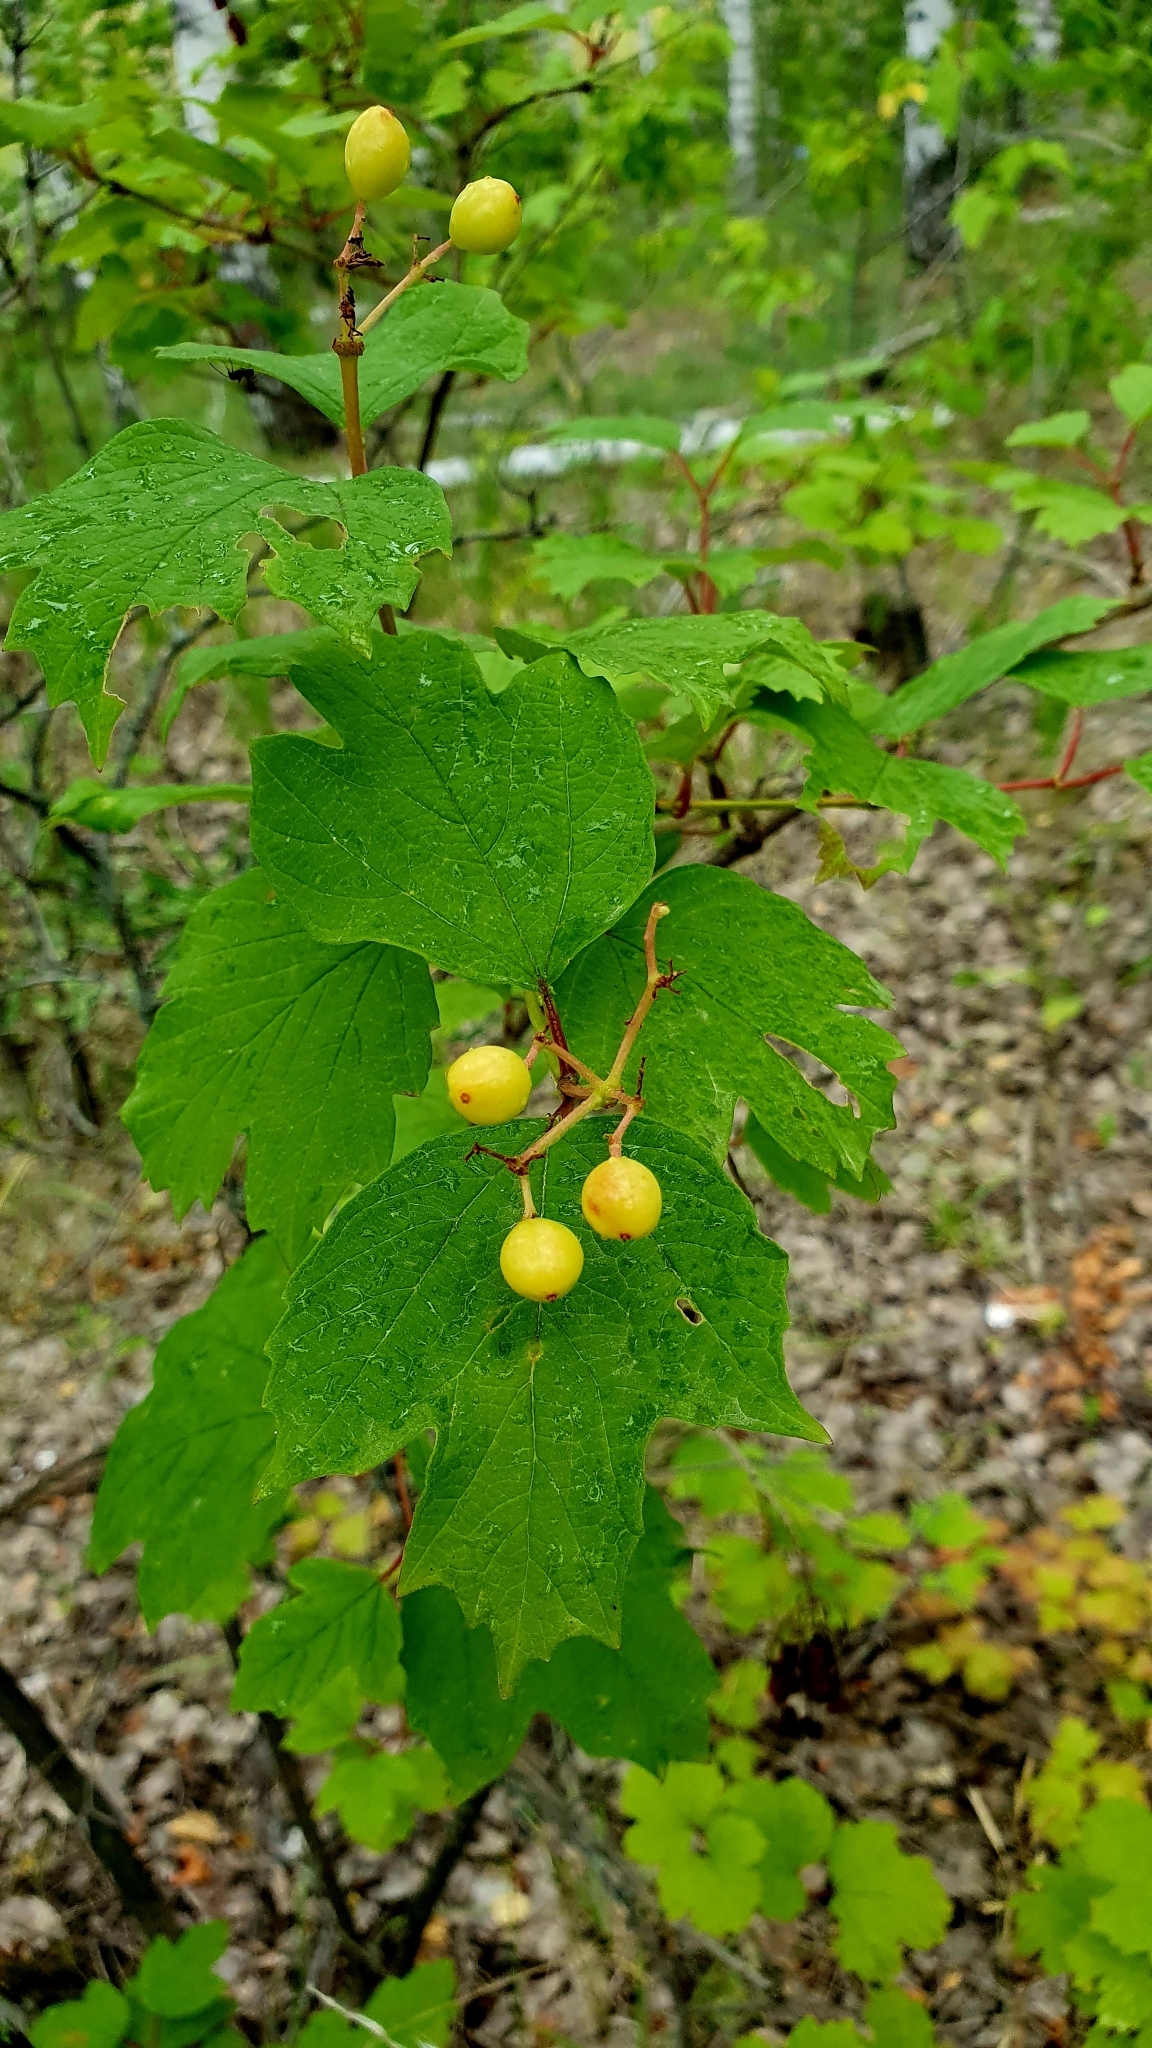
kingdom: Plantae
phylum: Tracheophyta
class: Magnoliopsida
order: Dipsacales
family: Viburnaceae
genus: Viburnum
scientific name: Viburnum opulus
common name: Guelder-rose
